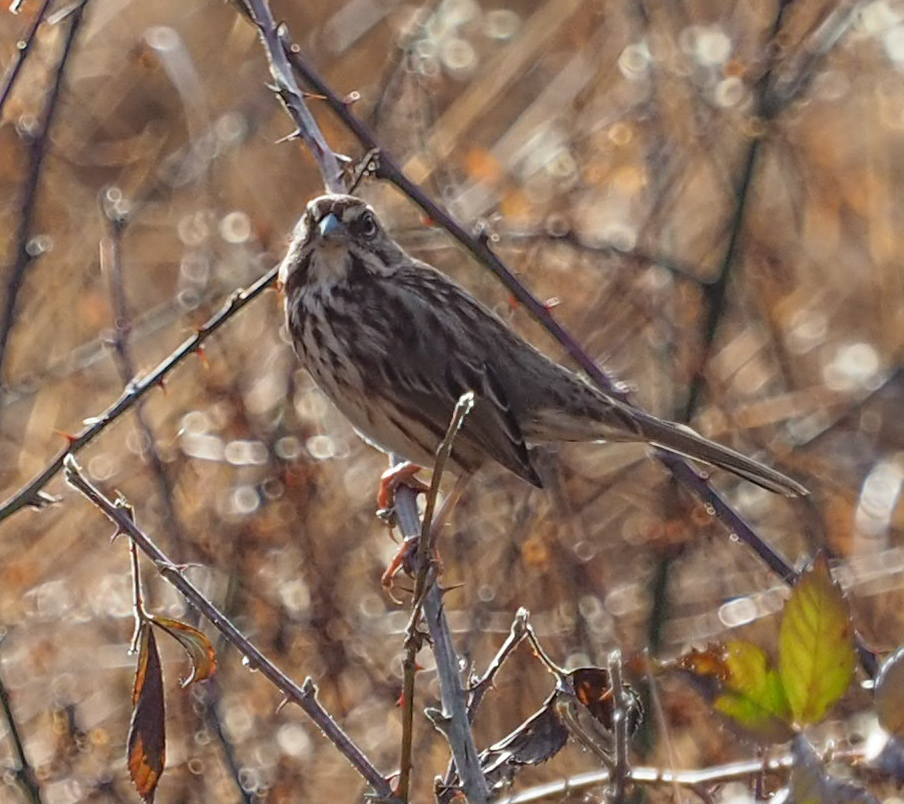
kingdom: Animalia
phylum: Chordata
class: Aves
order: Passeriformes
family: Passerellidae
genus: Melospiza
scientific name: Melospiza melodia
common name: Song sparrow
